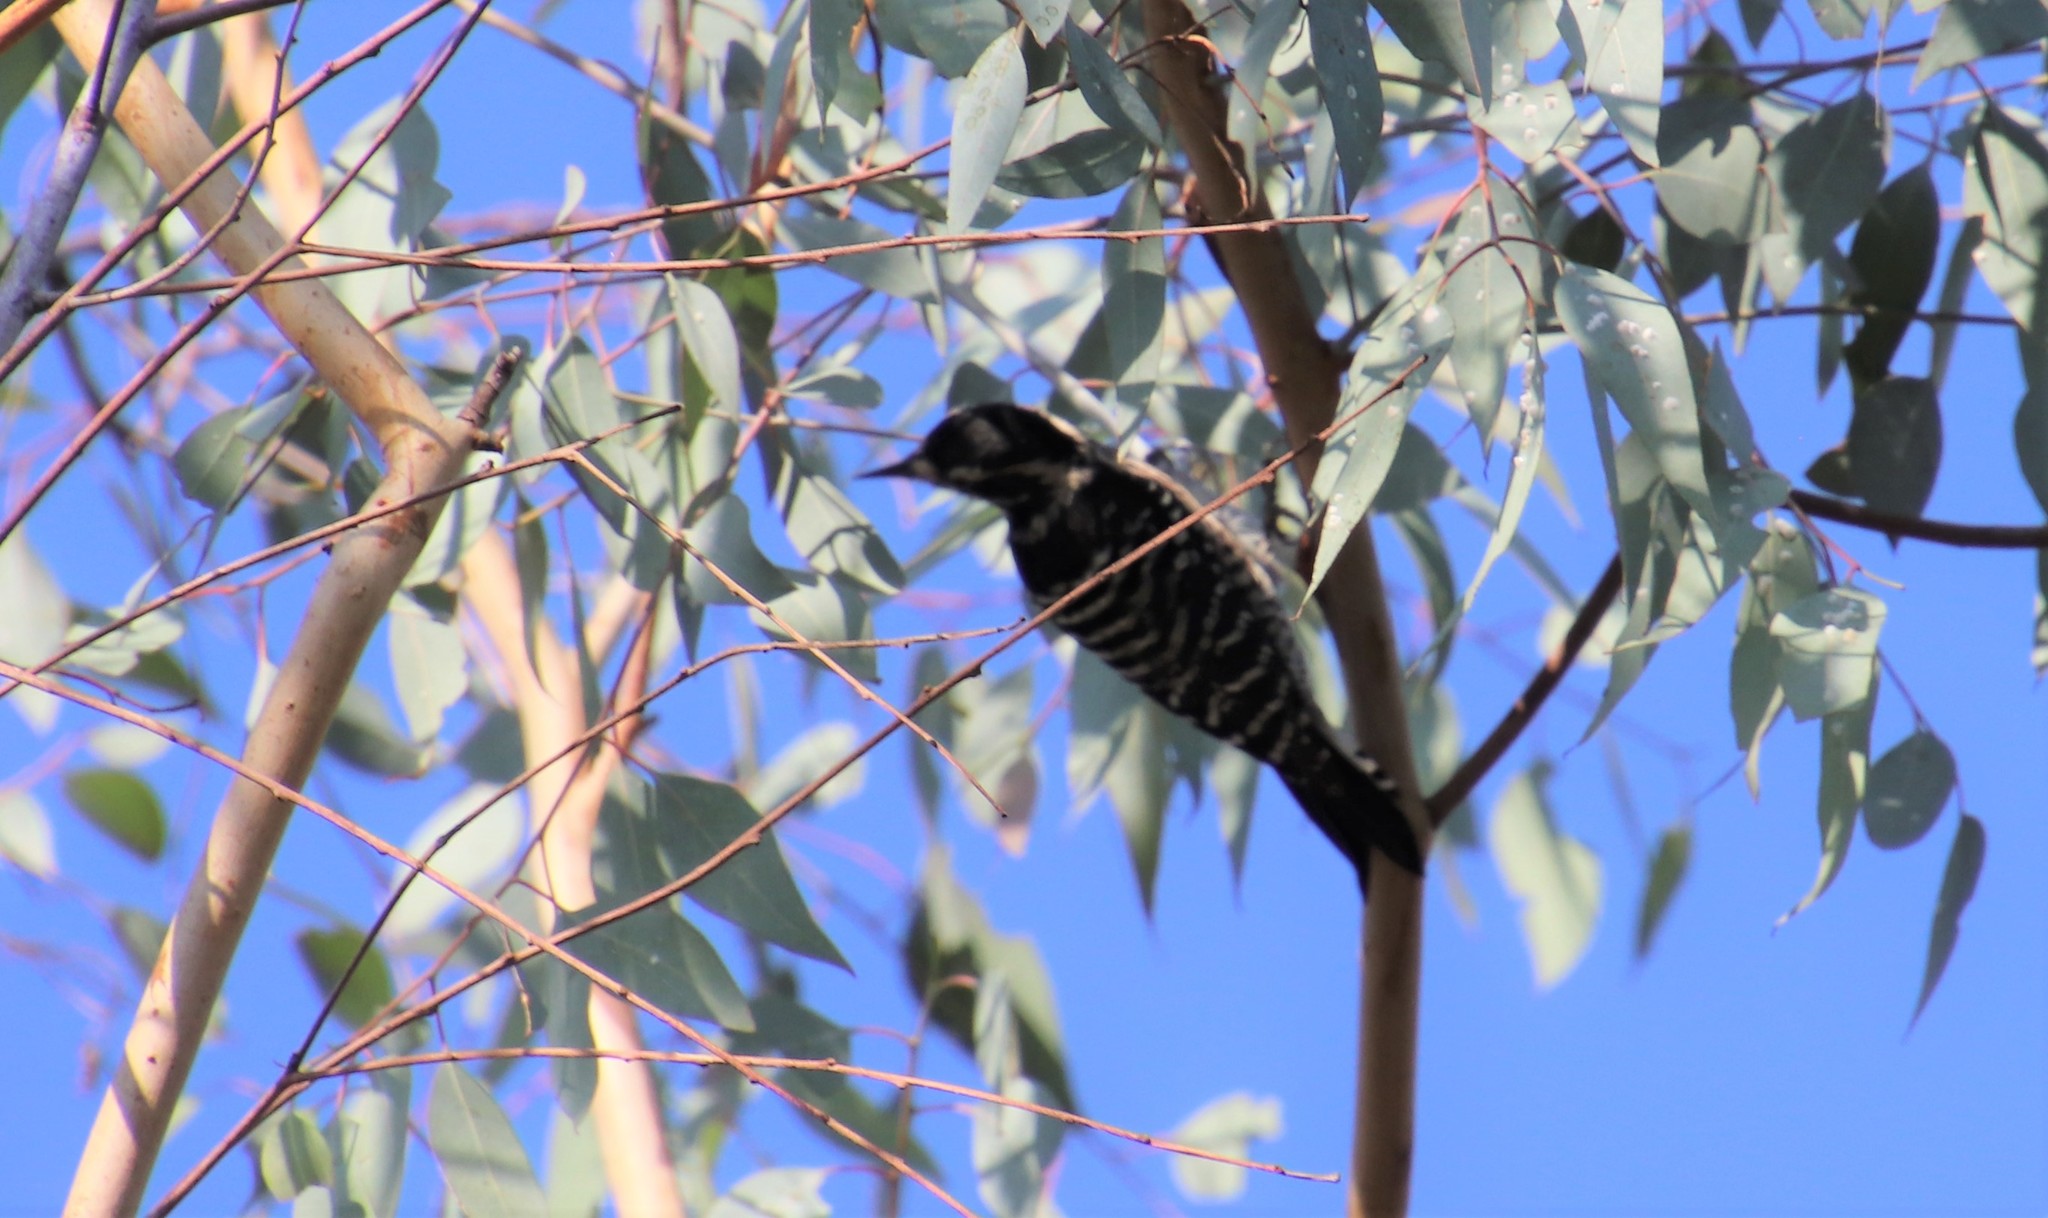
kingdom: Animalia
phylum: Chordata
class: Aves
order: Piciformes
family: Picidae
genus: Dryobates
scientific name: Dryobates nuttallii
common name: Nuttall's woodpecker
